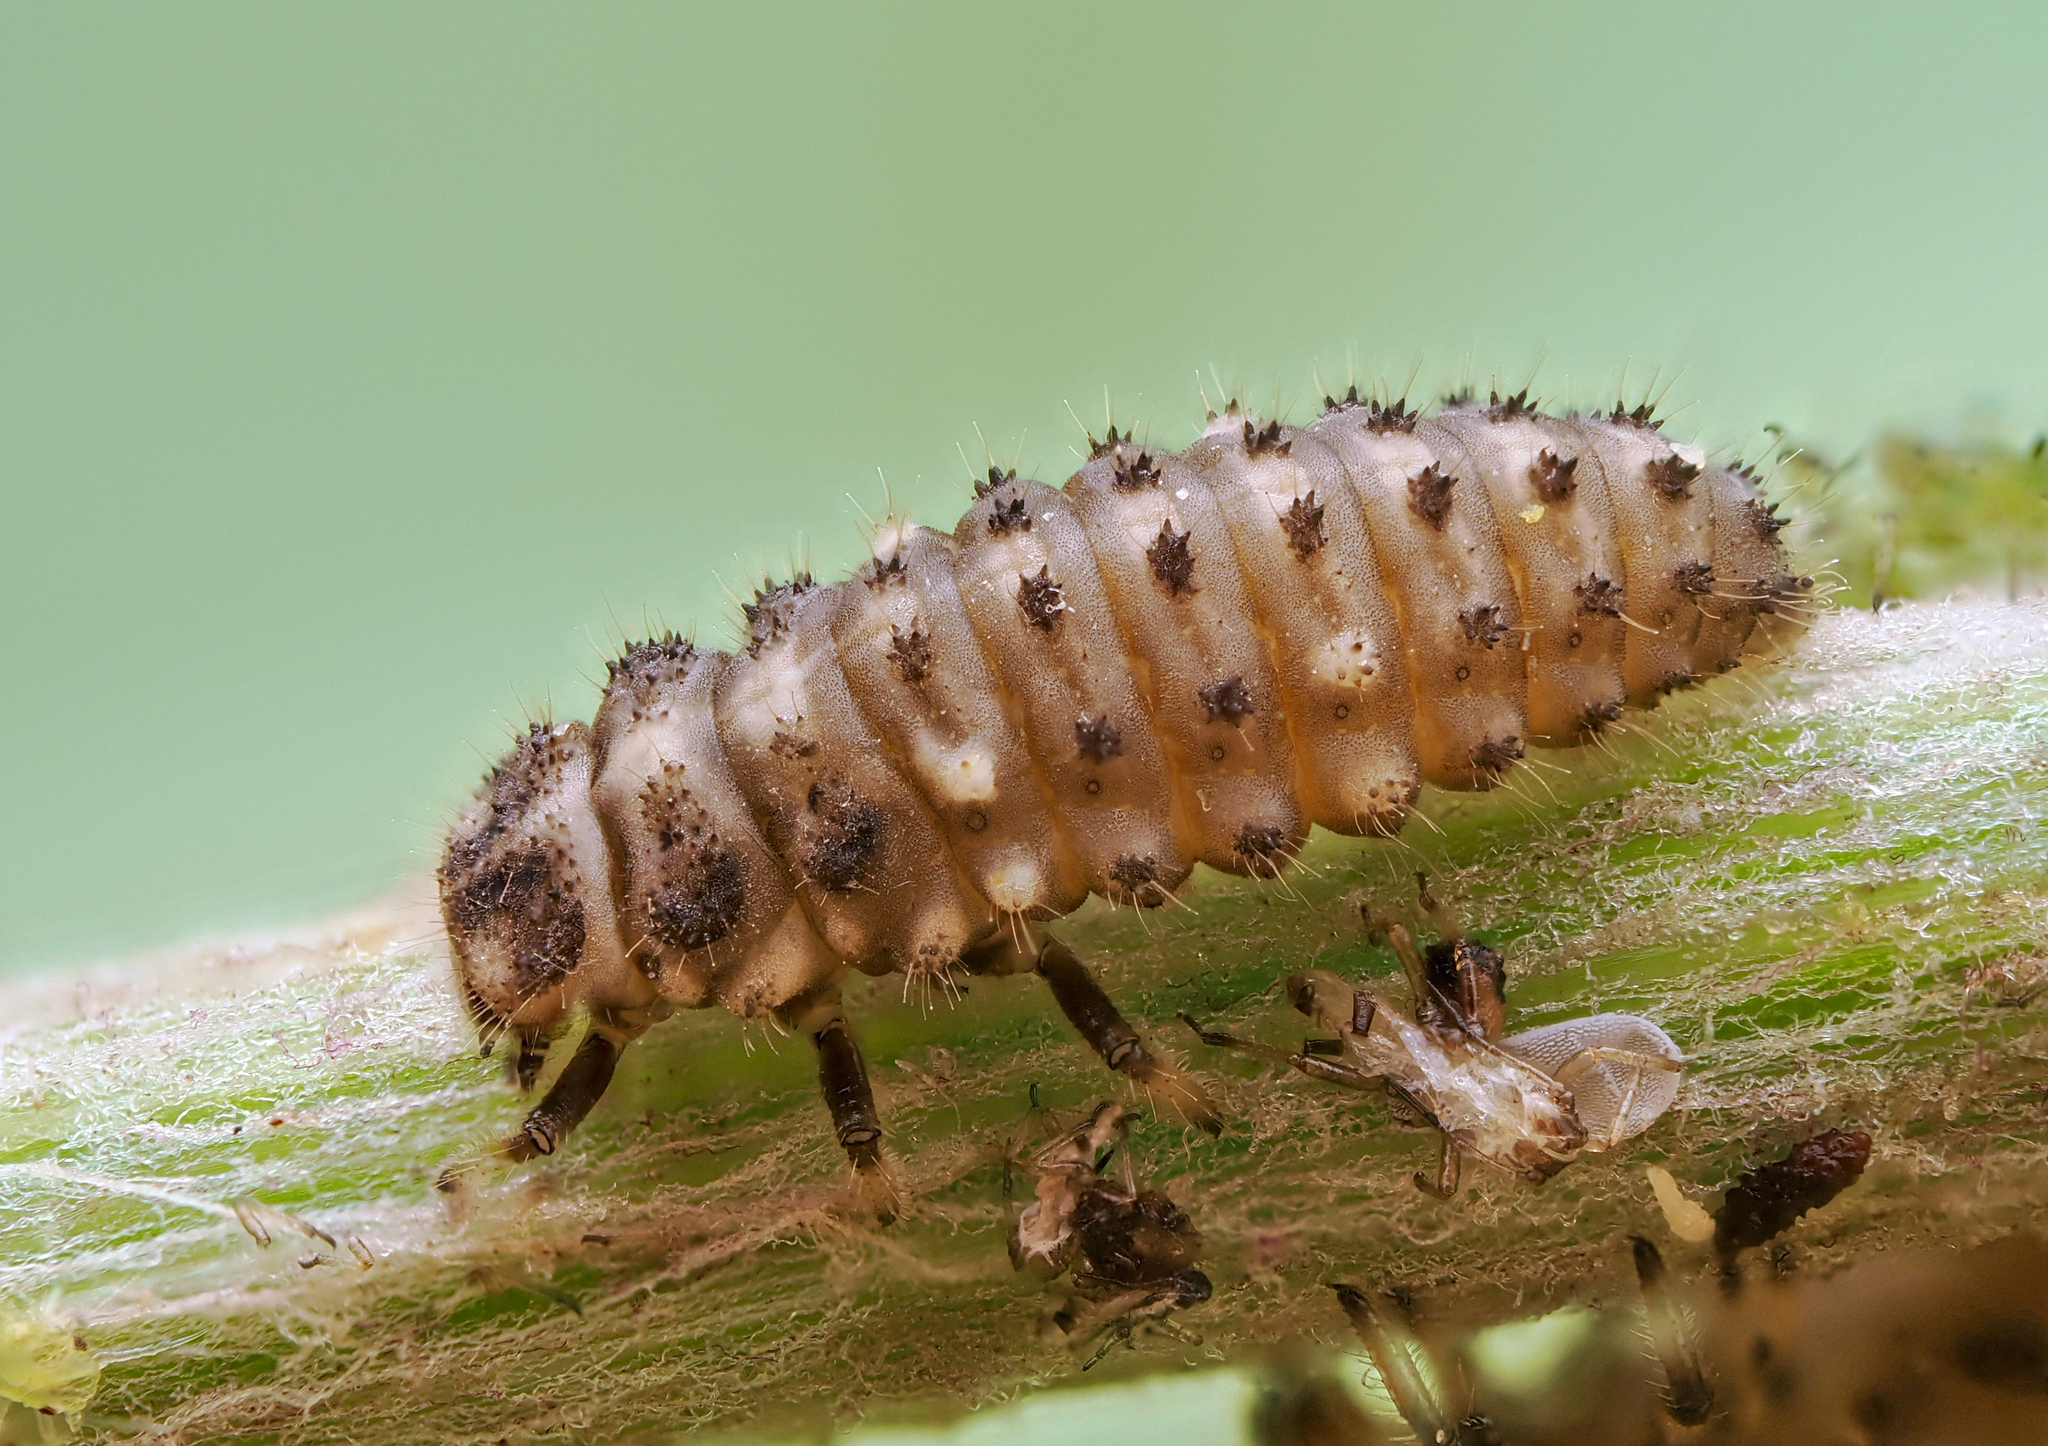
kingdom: Animalia
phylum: Arthropoda
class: Insecta
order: Coleoptera
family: Coccinellidae
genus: Ceratomegilla
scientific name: Ceratomegilla Semiadalia rufocincta
